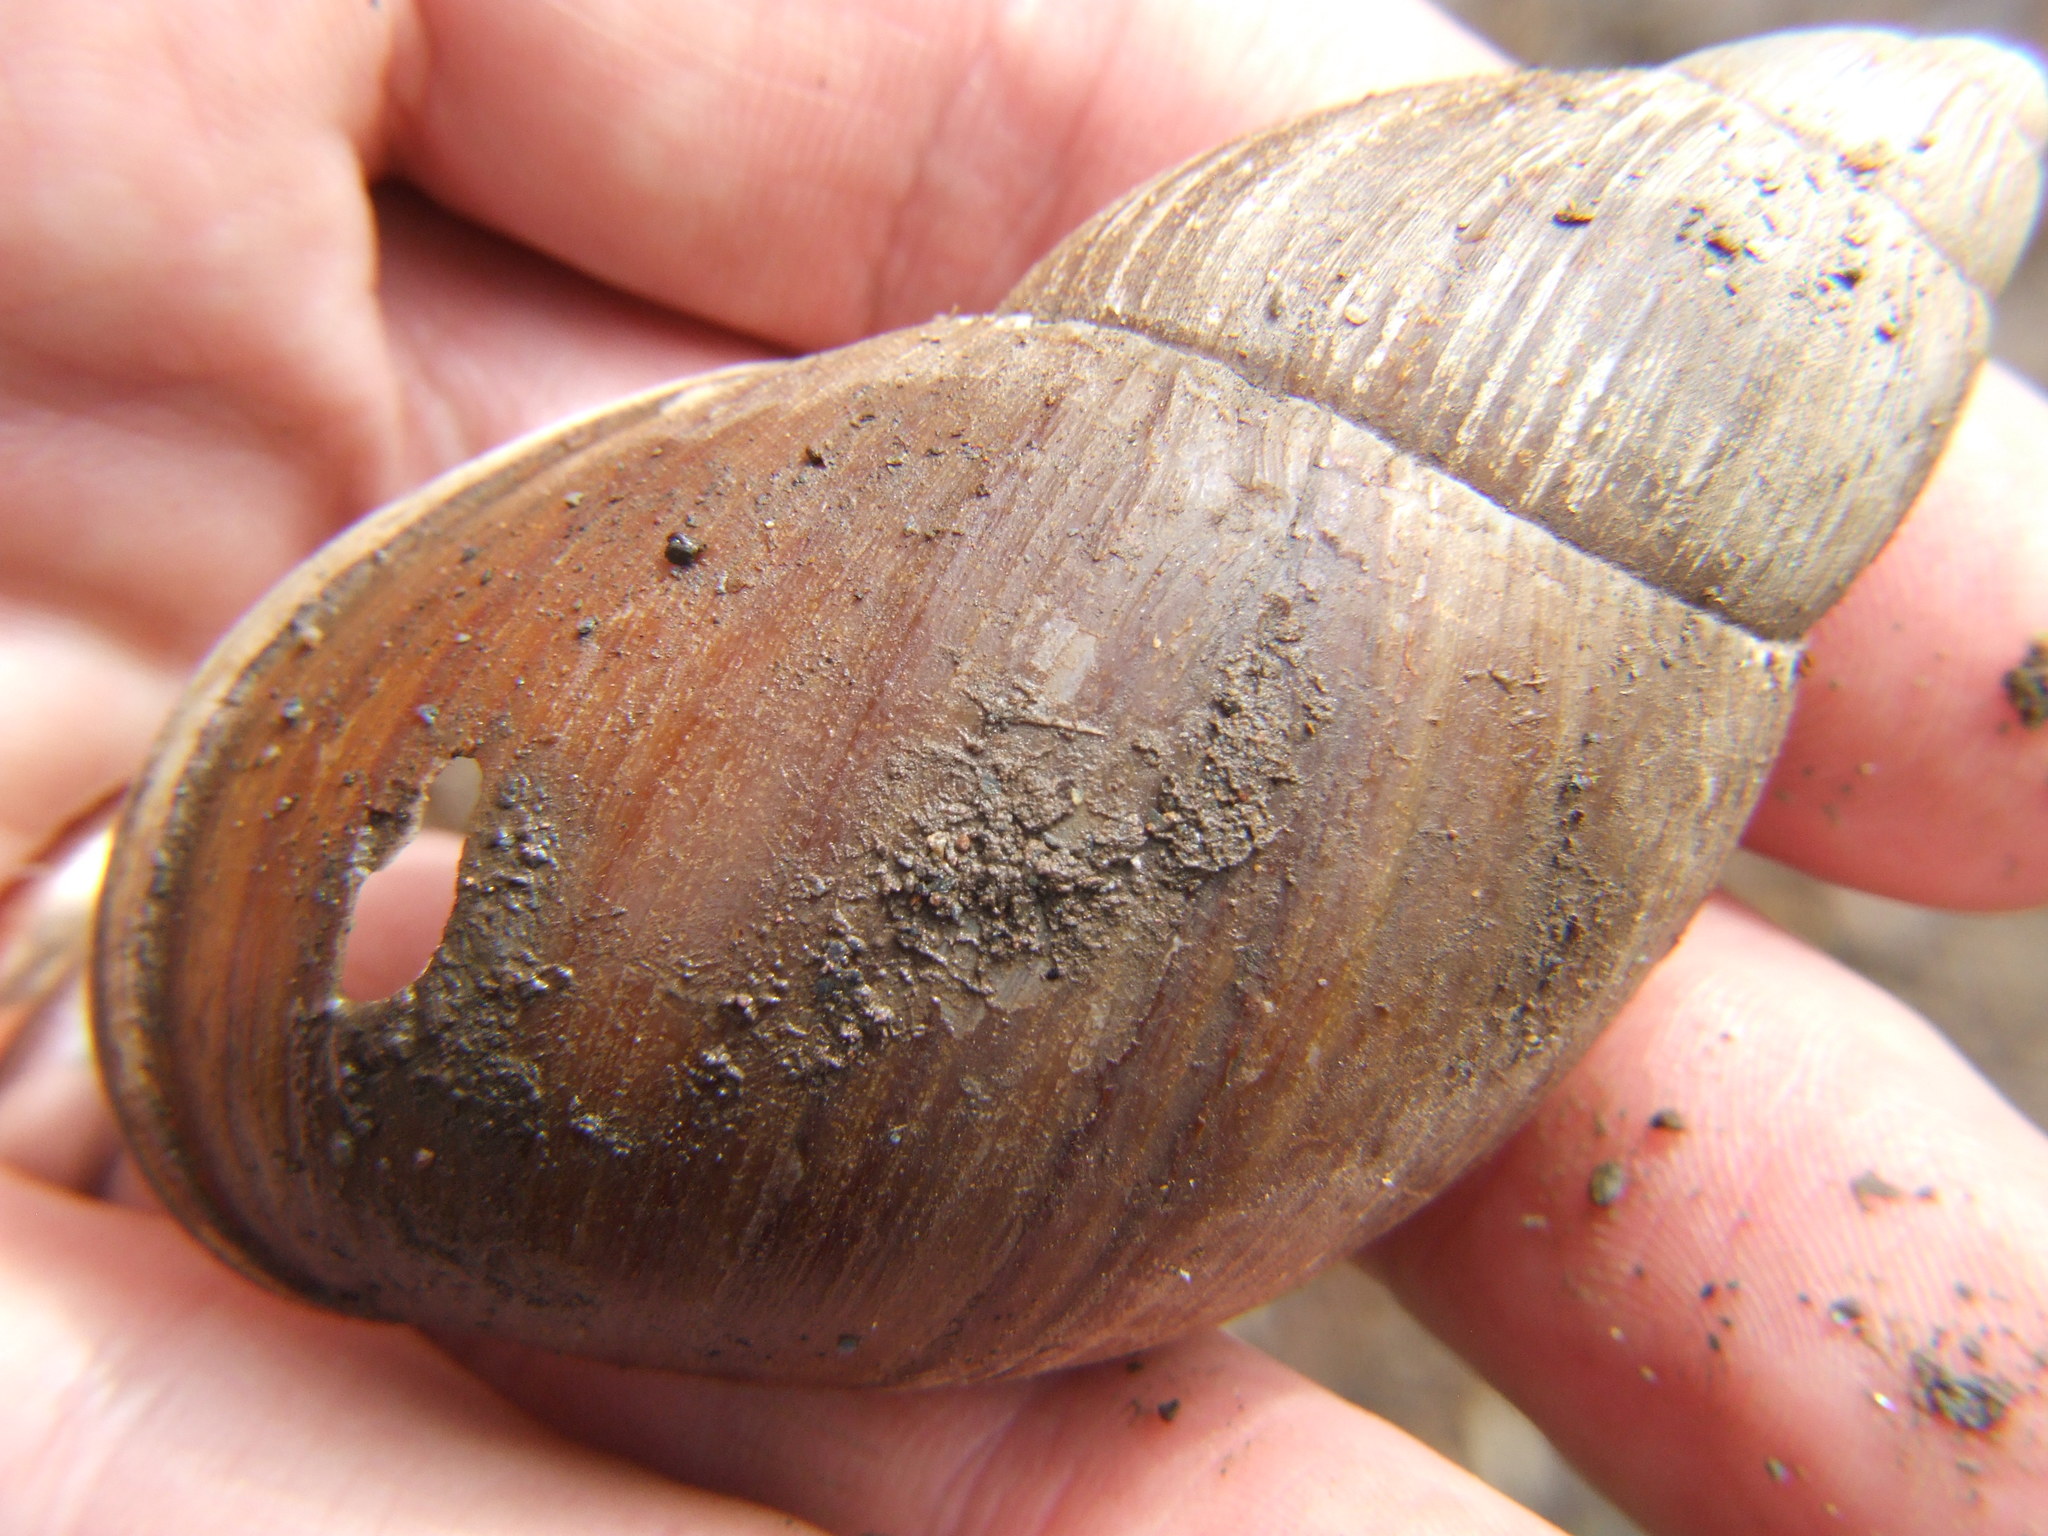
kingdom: Animalia
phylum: Mollusca
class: Gastropoda
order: Stylommatophora
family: Strophocheilidae
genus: Megalobulimus
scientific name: Megalobulimus lacunosus
